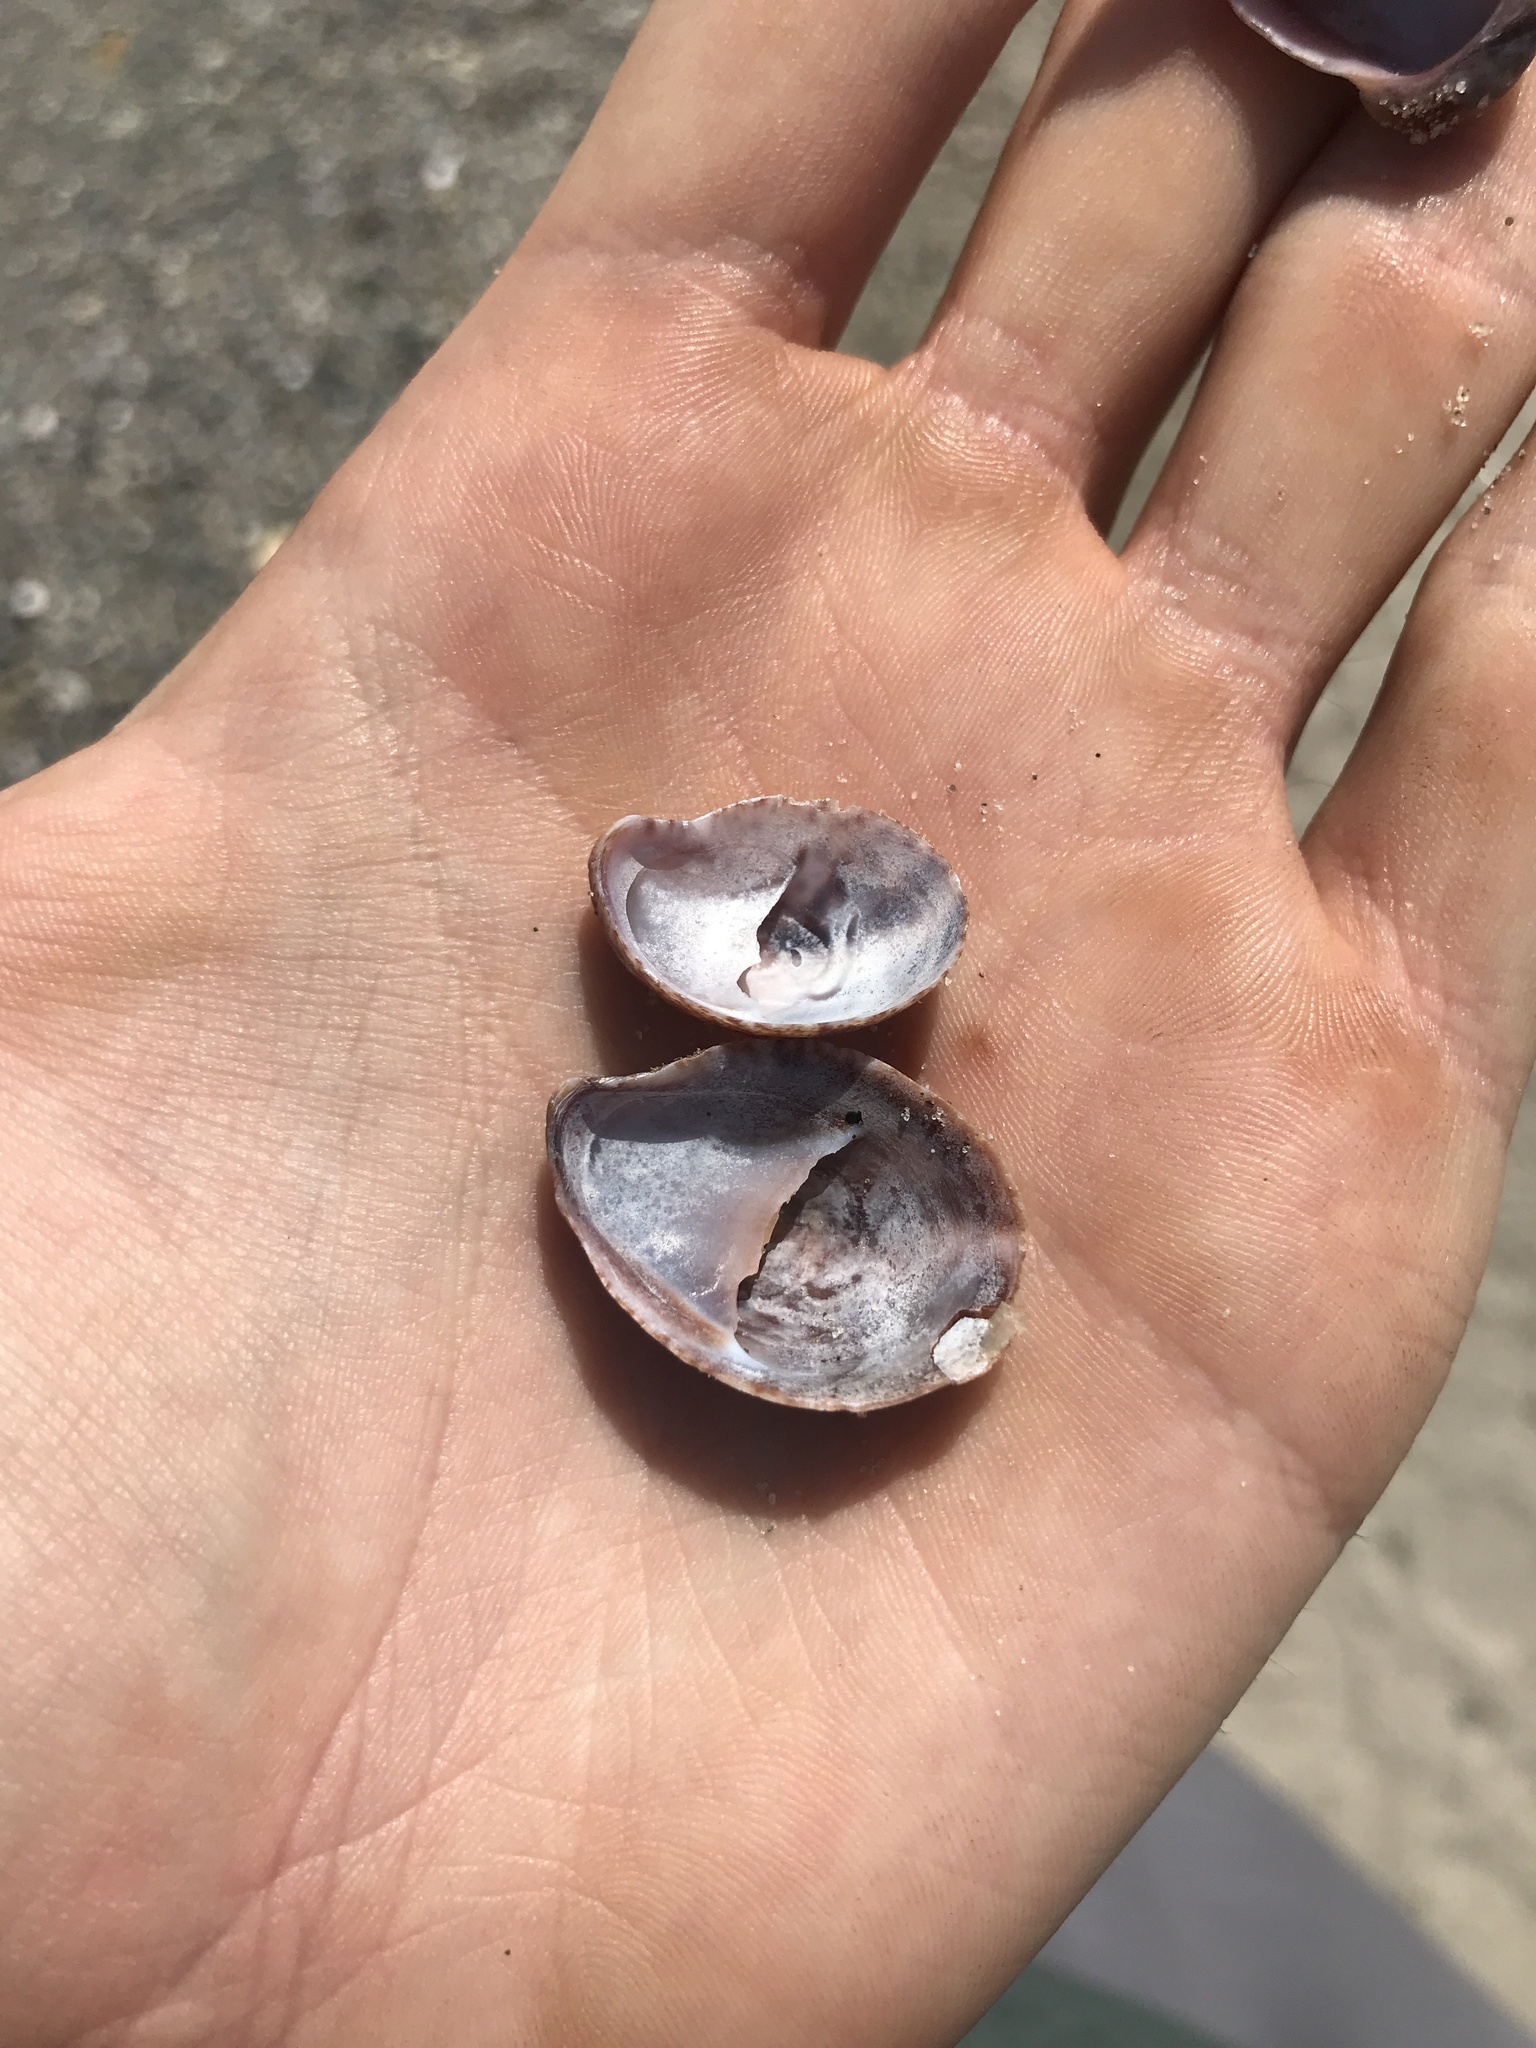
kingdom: Animalia
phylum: Mollusca
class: Gastropoda
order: Littorinimorpha
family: Calyptraeidae
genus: Crepidula
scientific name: Crepidula fornicata
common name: Slipper limpet
